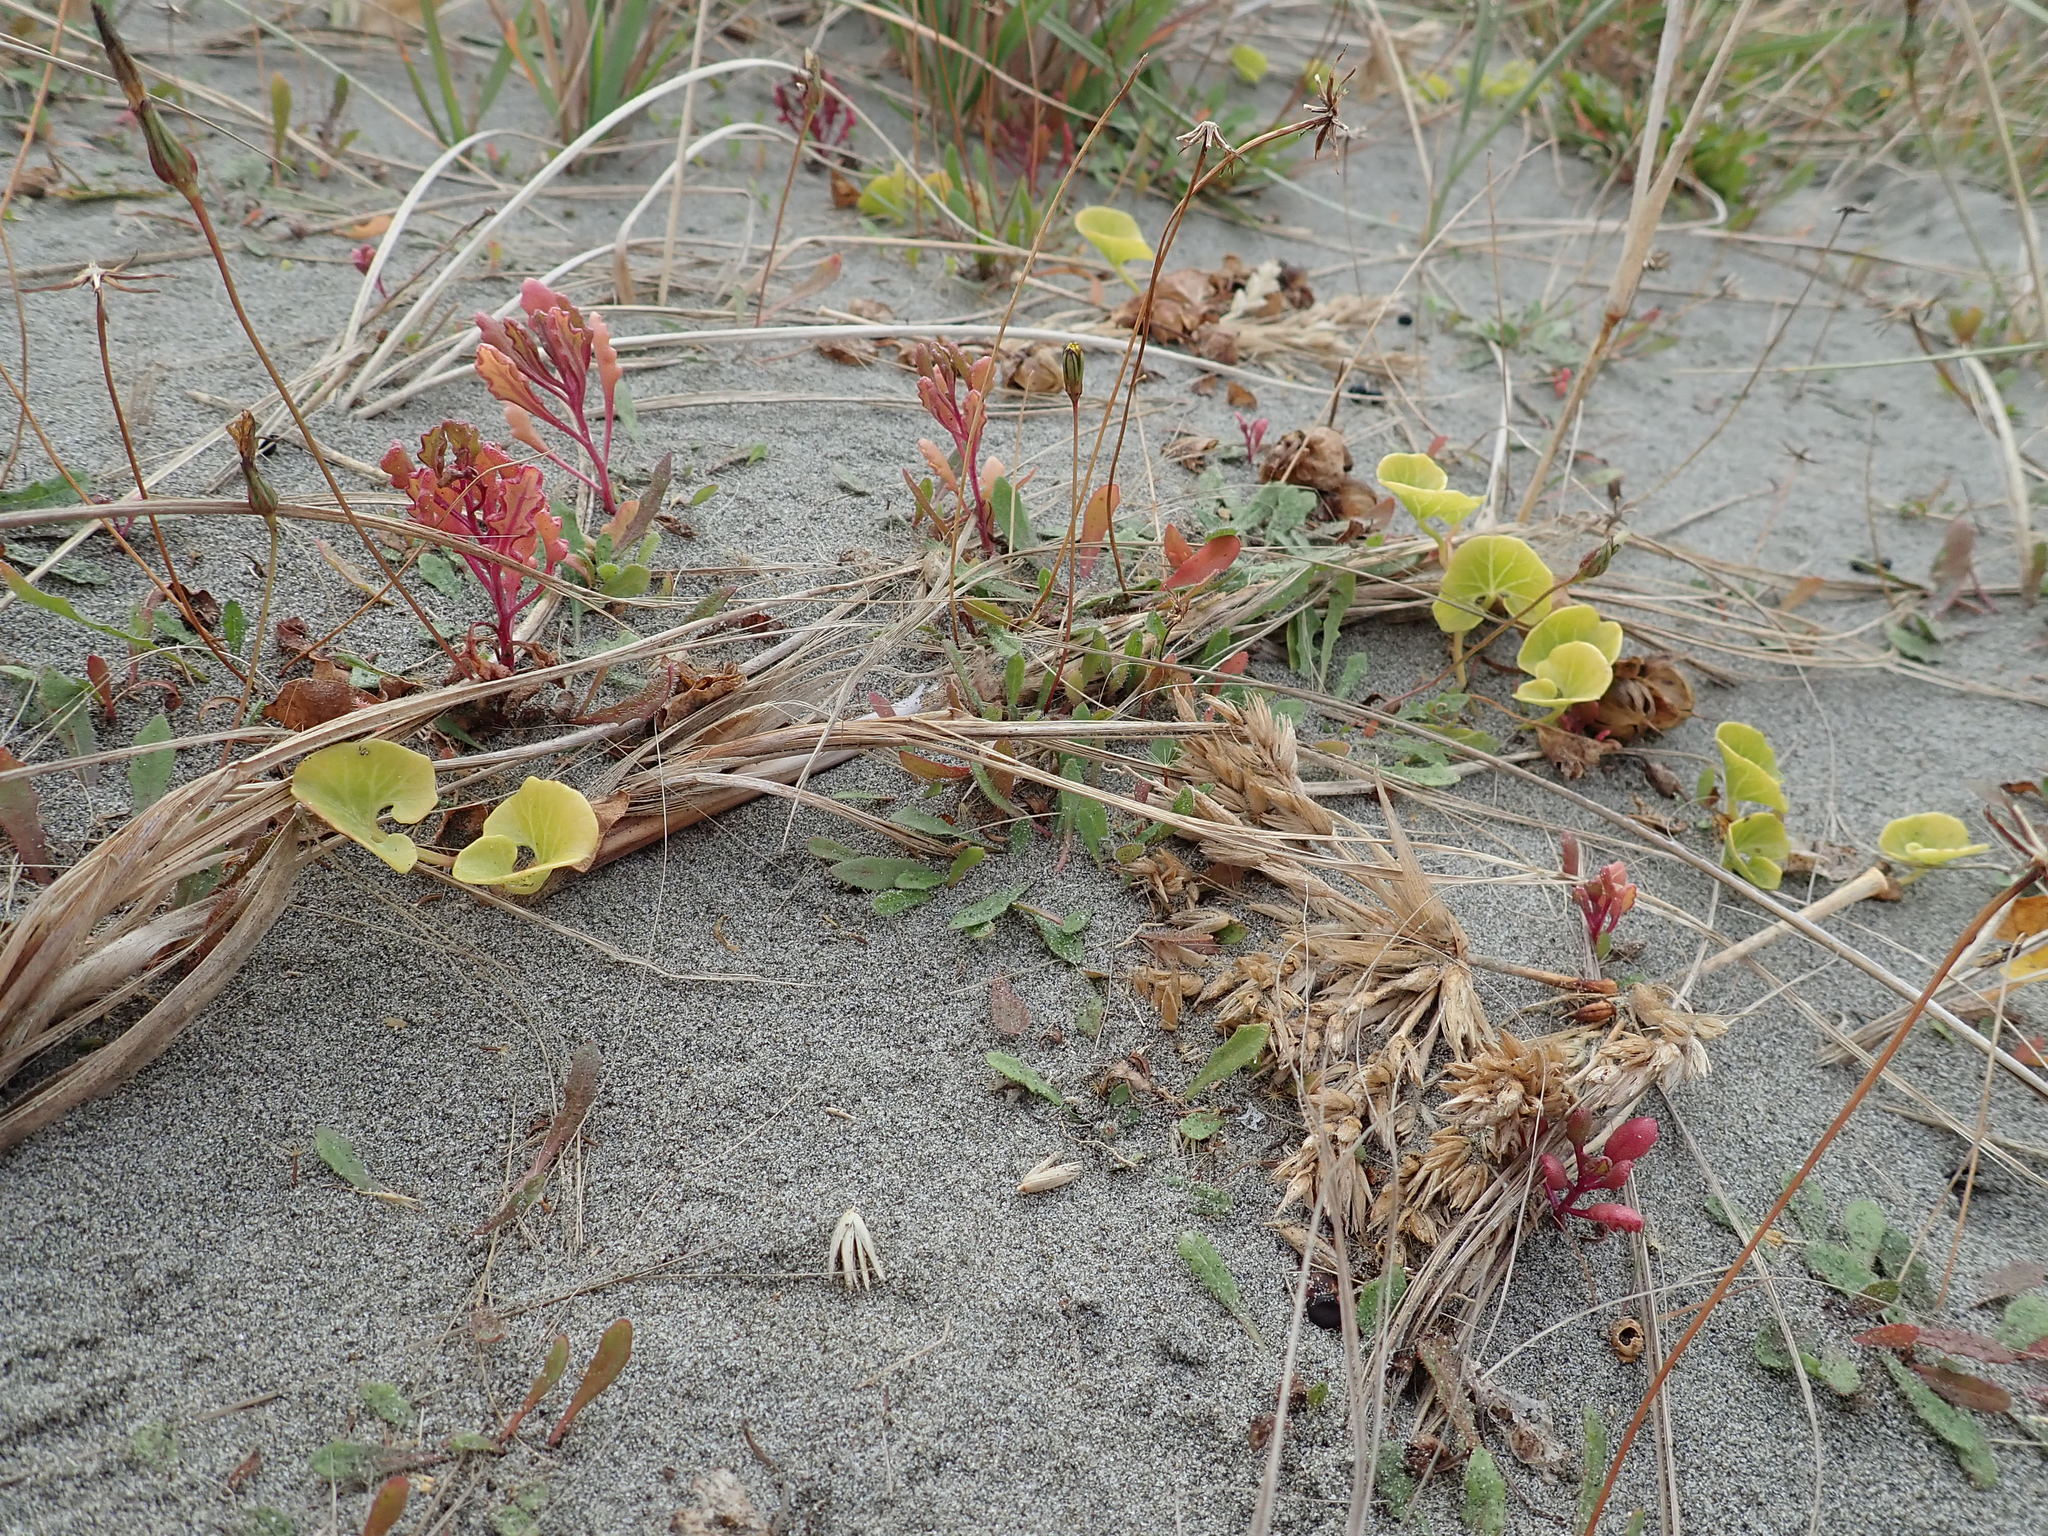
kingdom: Plantae
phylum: Tracheophyta
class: Magnoliopsida
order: Asterales
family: Asteraceae
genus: Senecio
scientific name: Senecio elegans
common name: Purple groundsel
